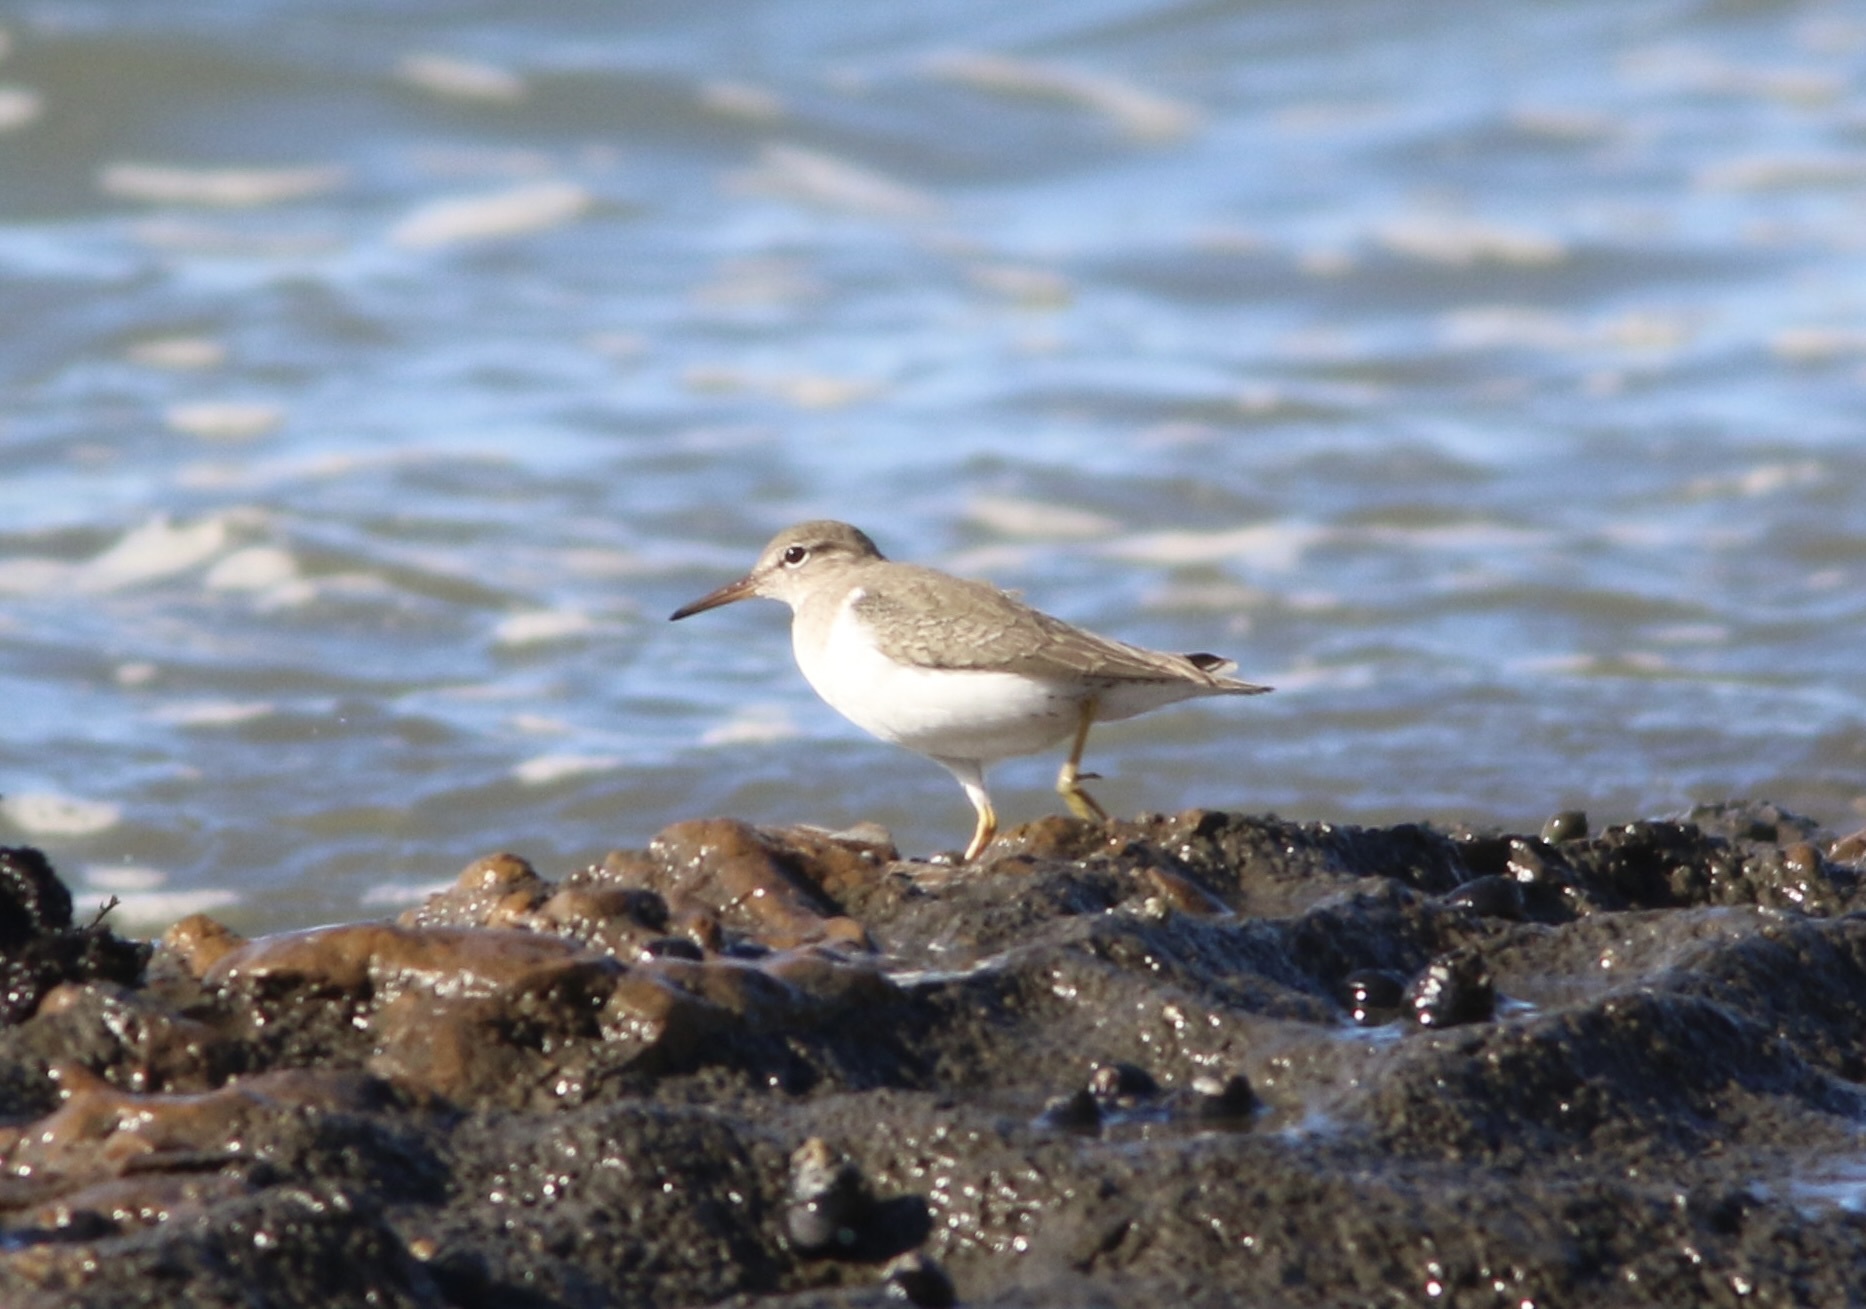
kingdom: Animalia
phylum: Chordata
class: Aves
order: Charadriiformes
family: Scolopacidae
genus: Actitis
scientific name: Actitis macularius
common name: Spotted sandpiper
